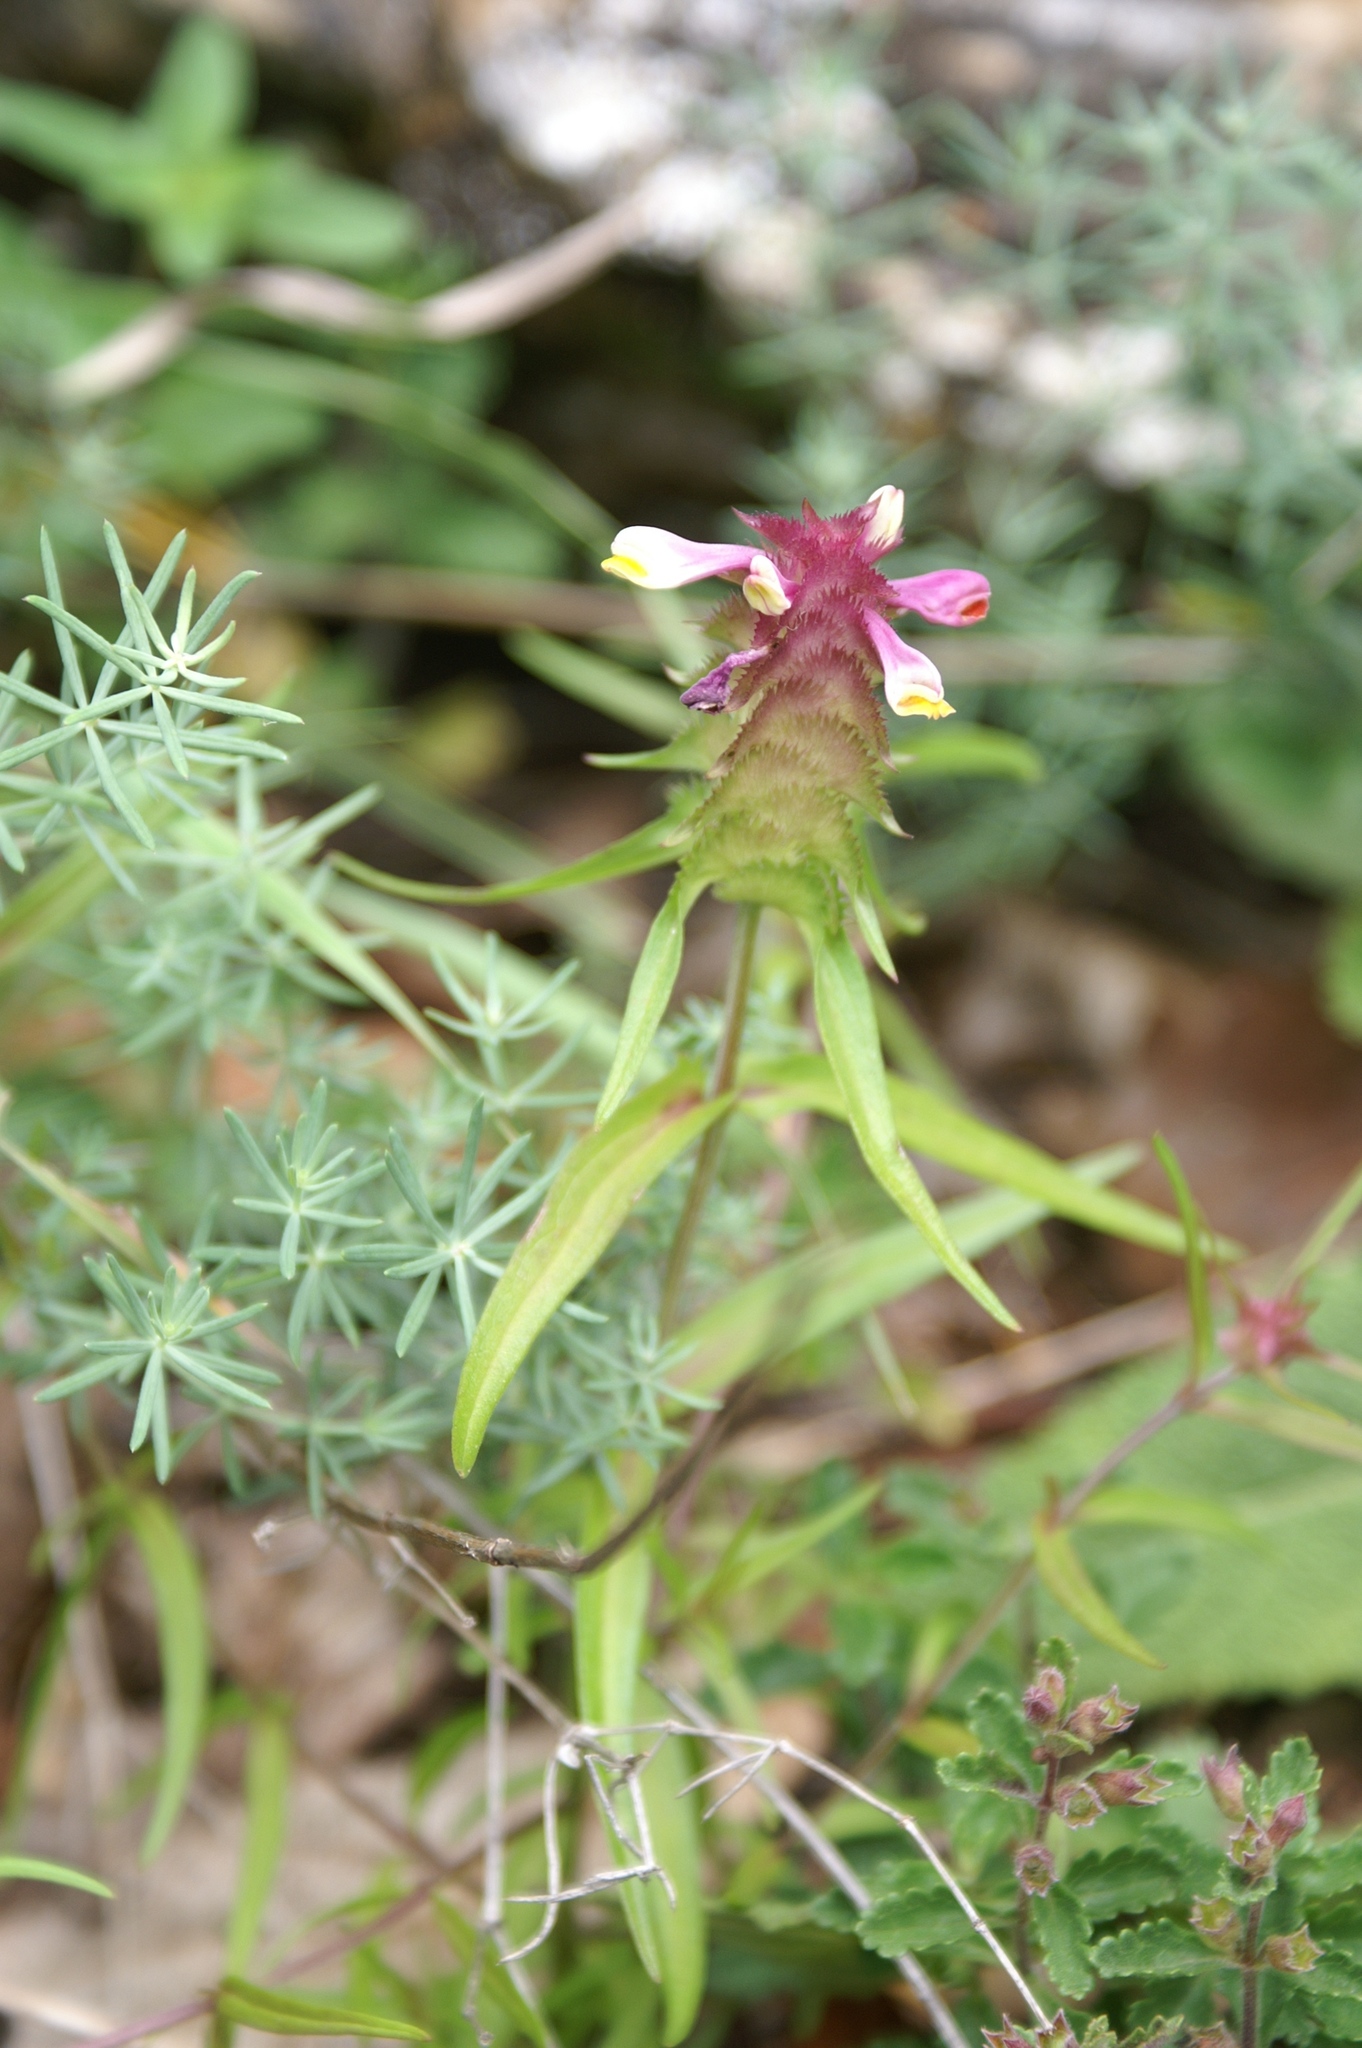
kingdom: Plantae
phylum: Tracheophyta
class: Magnoliopsida
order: Lamiales
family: Orobanchaceae
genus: Melampyrum
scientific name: Melampyrum cristatum
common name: Crested cow-wheat
